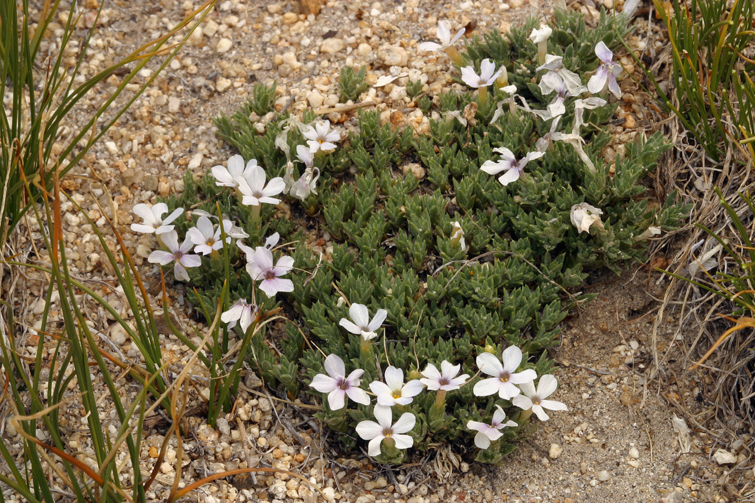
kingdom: Plantae
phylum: Tracheophyta
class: Magnoliopsida
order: Ericales
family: Polemoniaceae
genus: Phlox
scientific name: Phlox condensata
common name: Compact phlox
